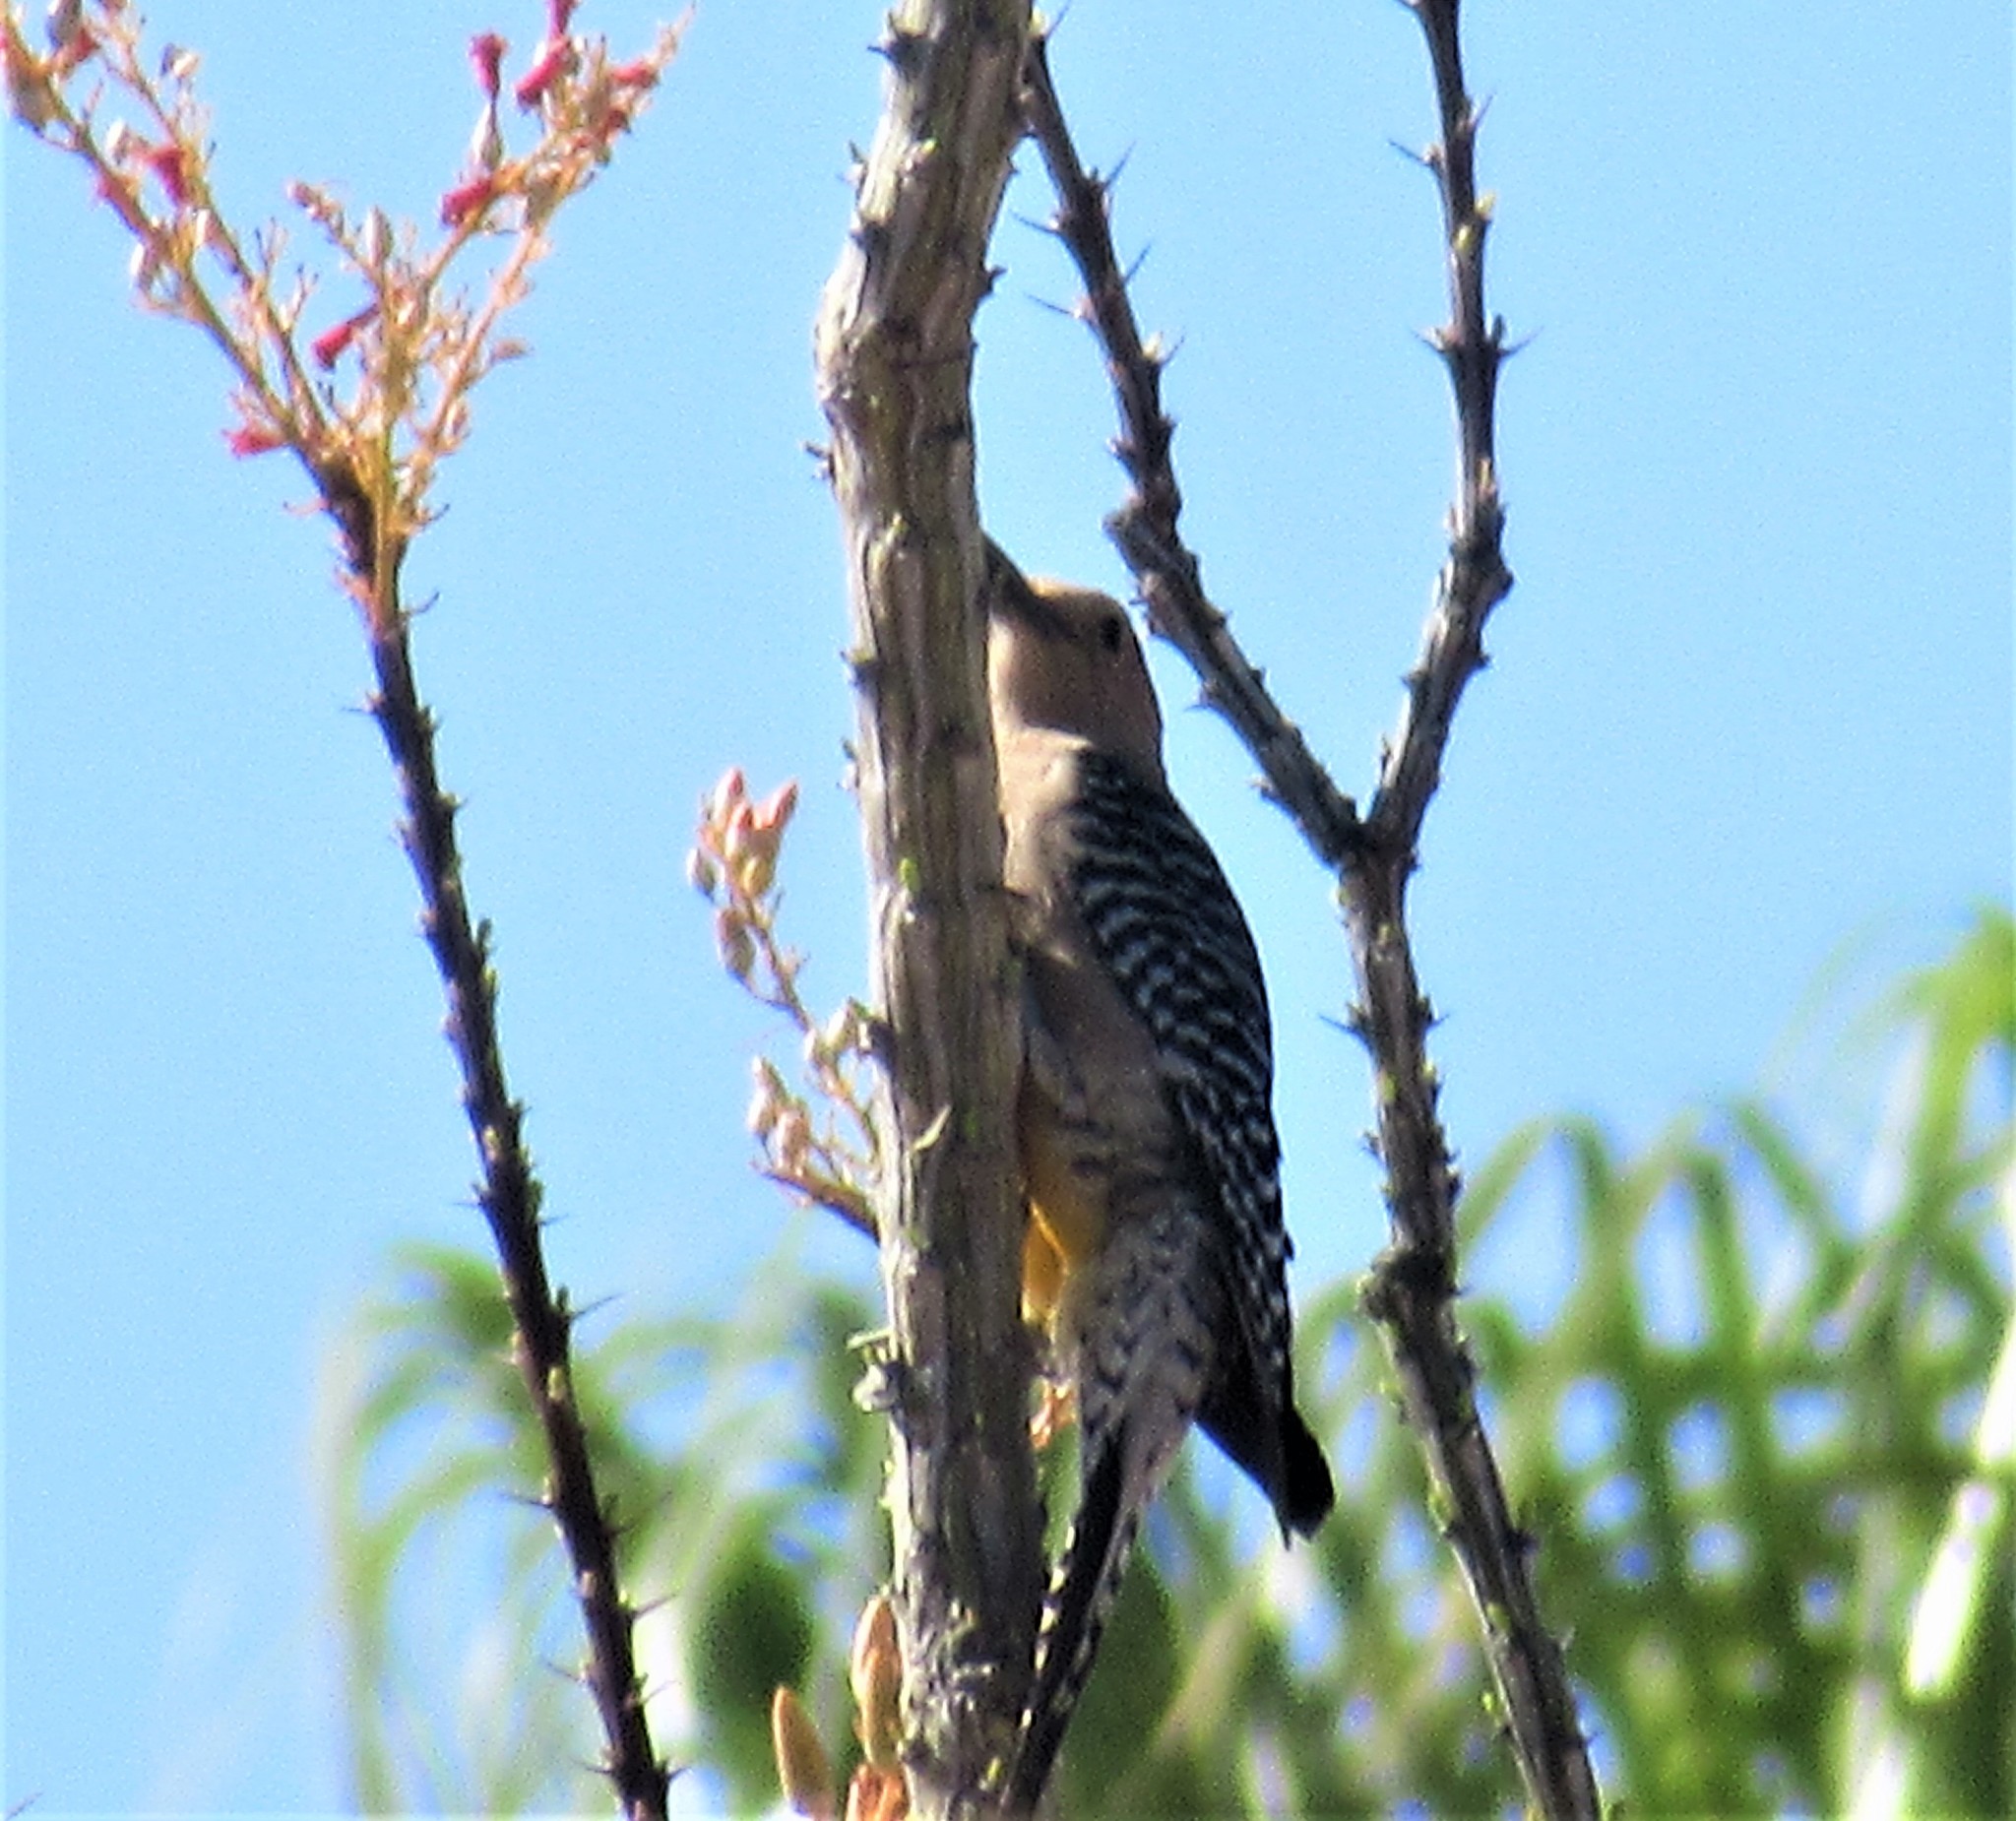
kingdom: Animalia
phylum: Chordata
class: Aves
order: Piciformes
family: Picidae
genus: Melanerpes
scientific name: Melanerpes uropygialis
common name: Gila woodpecker
